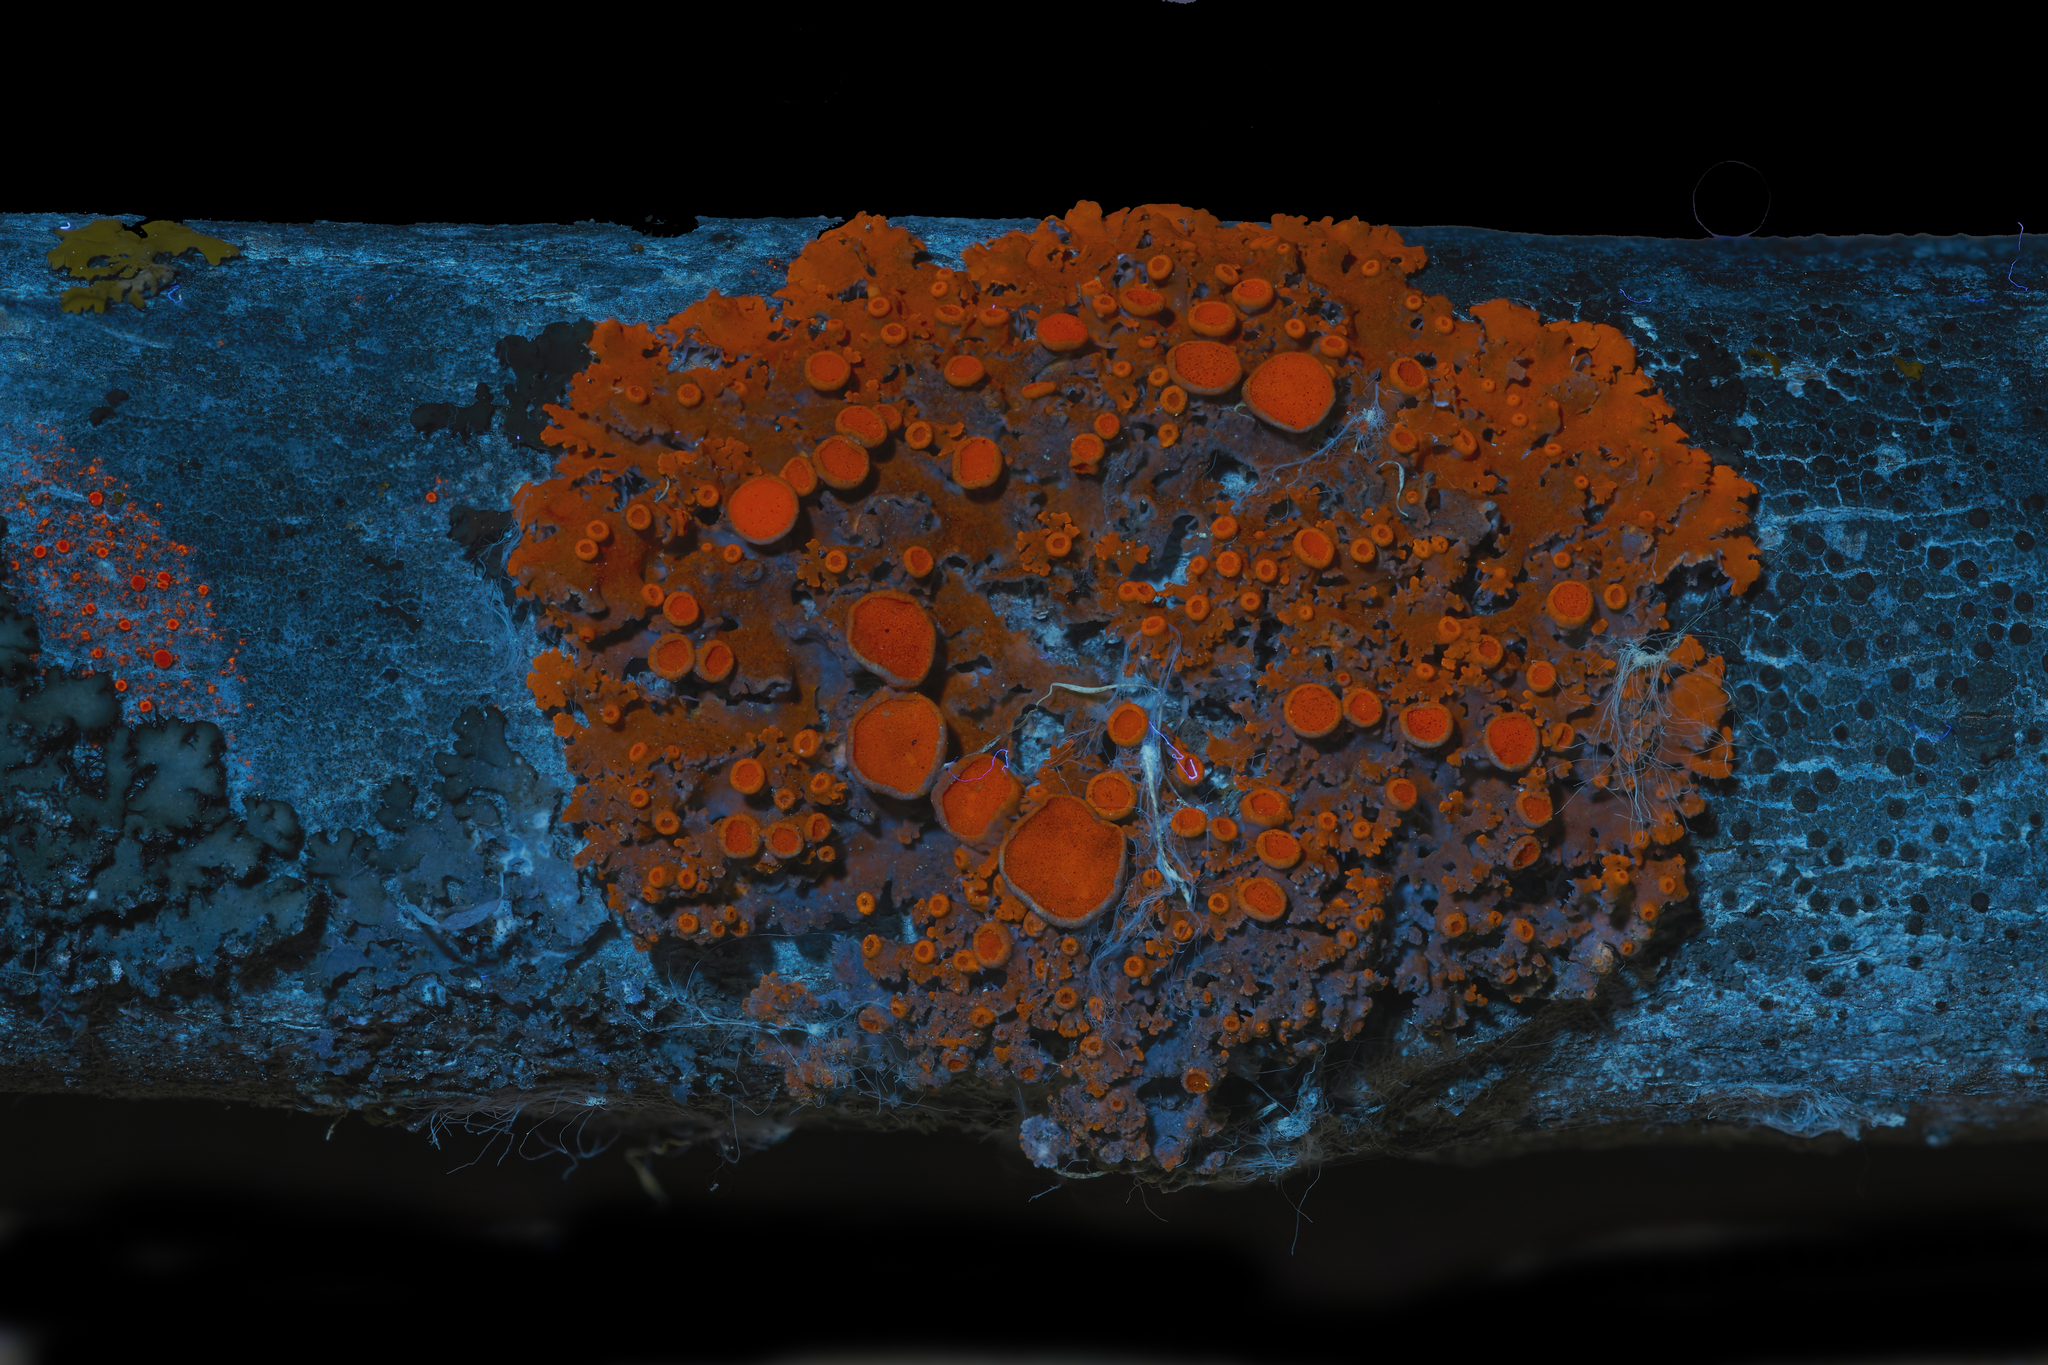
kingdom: Fungi
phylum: Ascomycota
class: Lecanoromycetes
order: Teloschistales
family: Teloschistaceae
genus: Gallowayella
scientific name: Gallowayella hasseana
